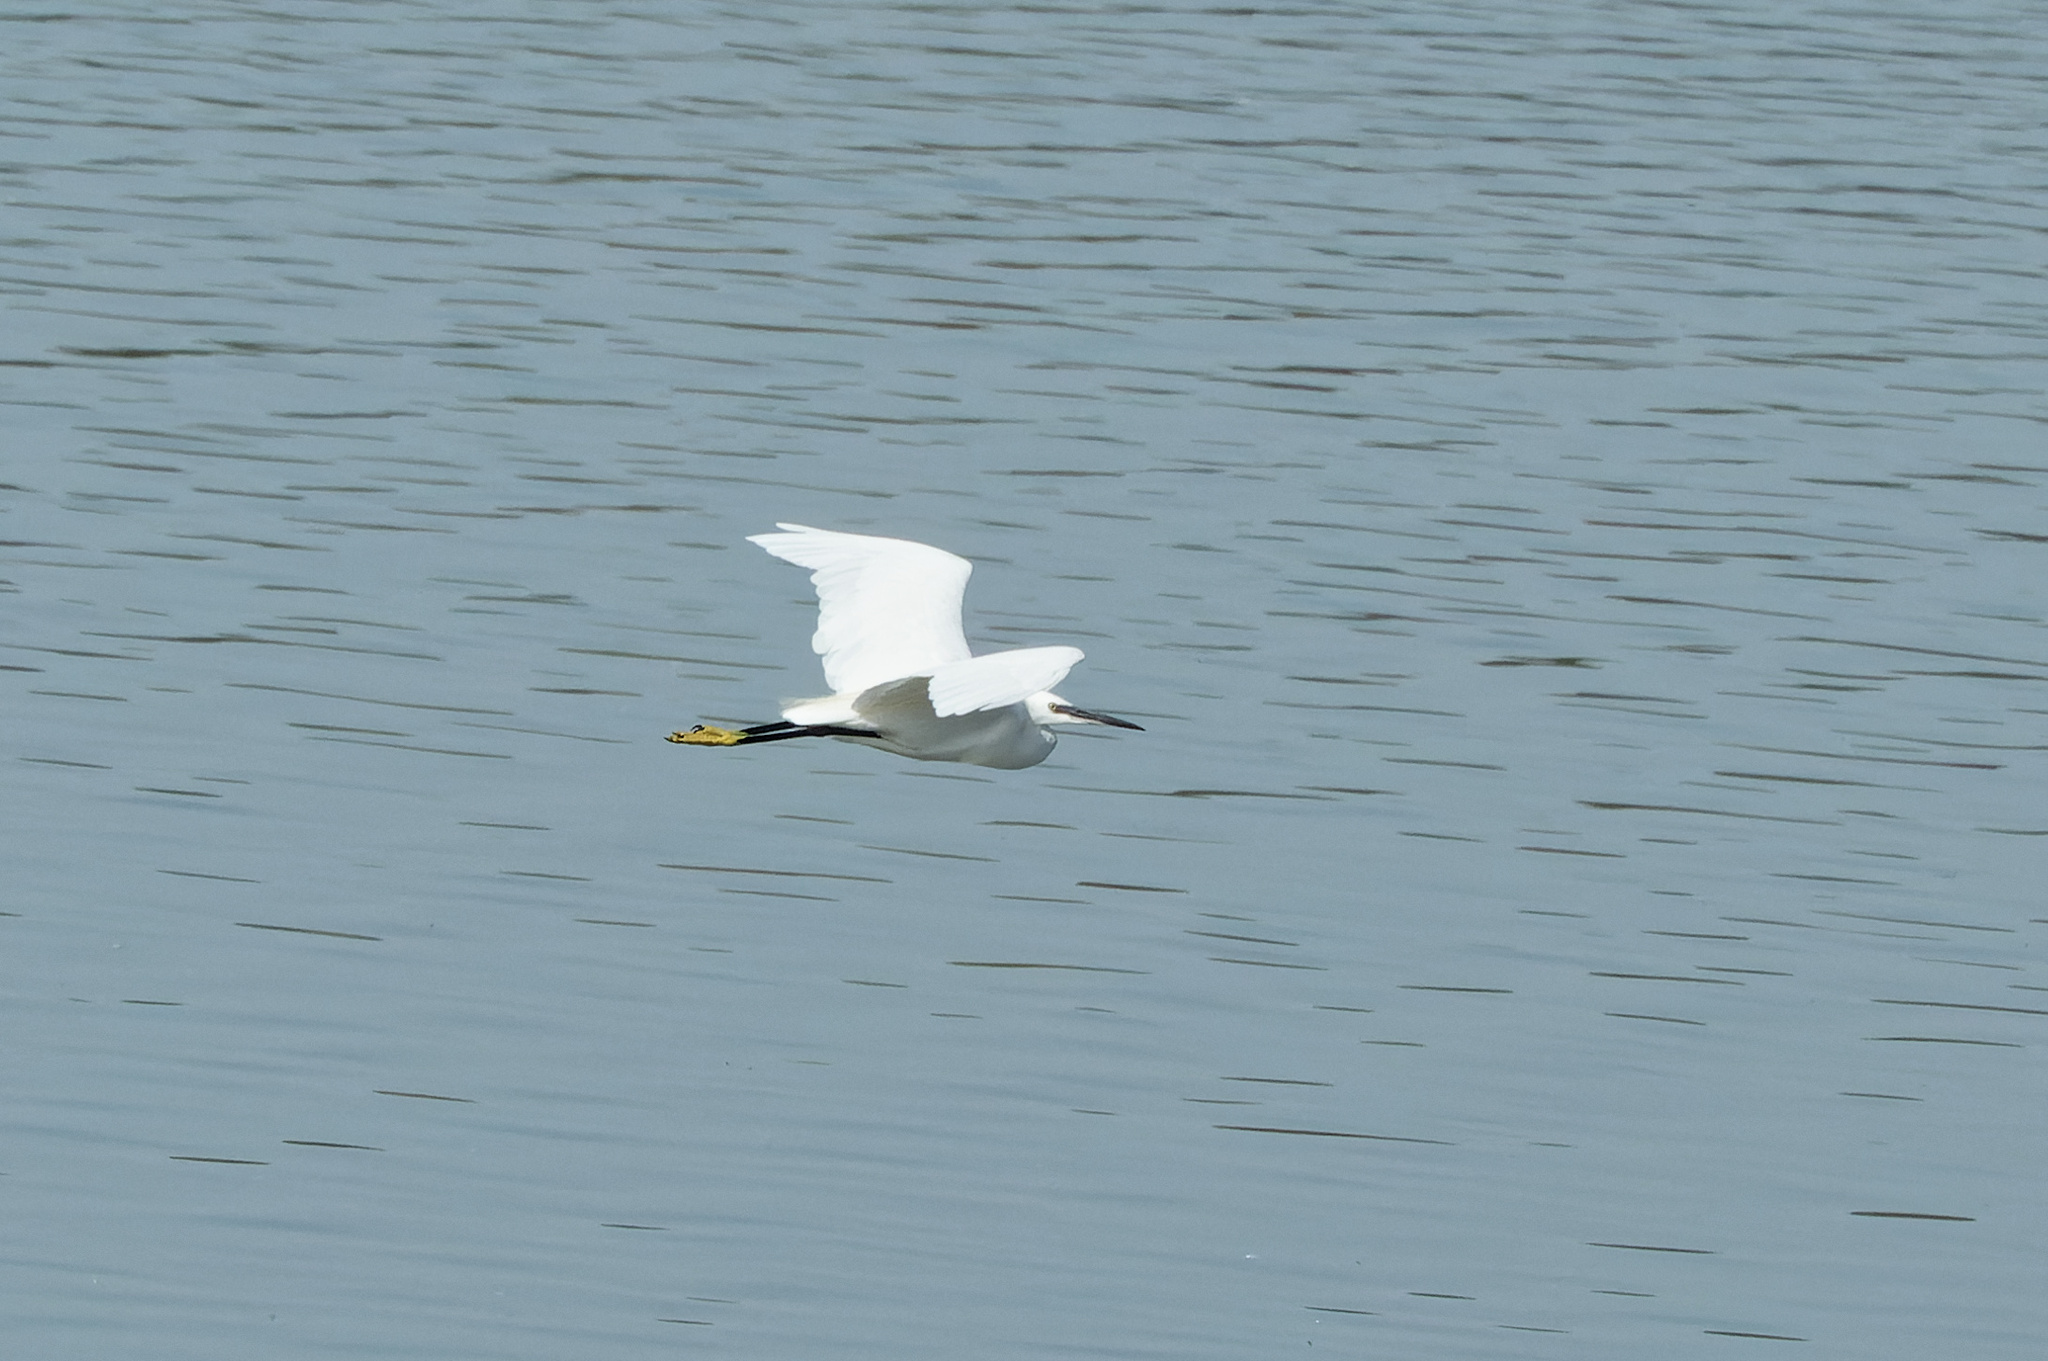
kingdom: Animalia
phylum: Chordata
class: Aves
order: Pelecaniformes
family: Ardeidae
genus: Egretta
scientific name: Egretta garzetta
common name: Little egret
